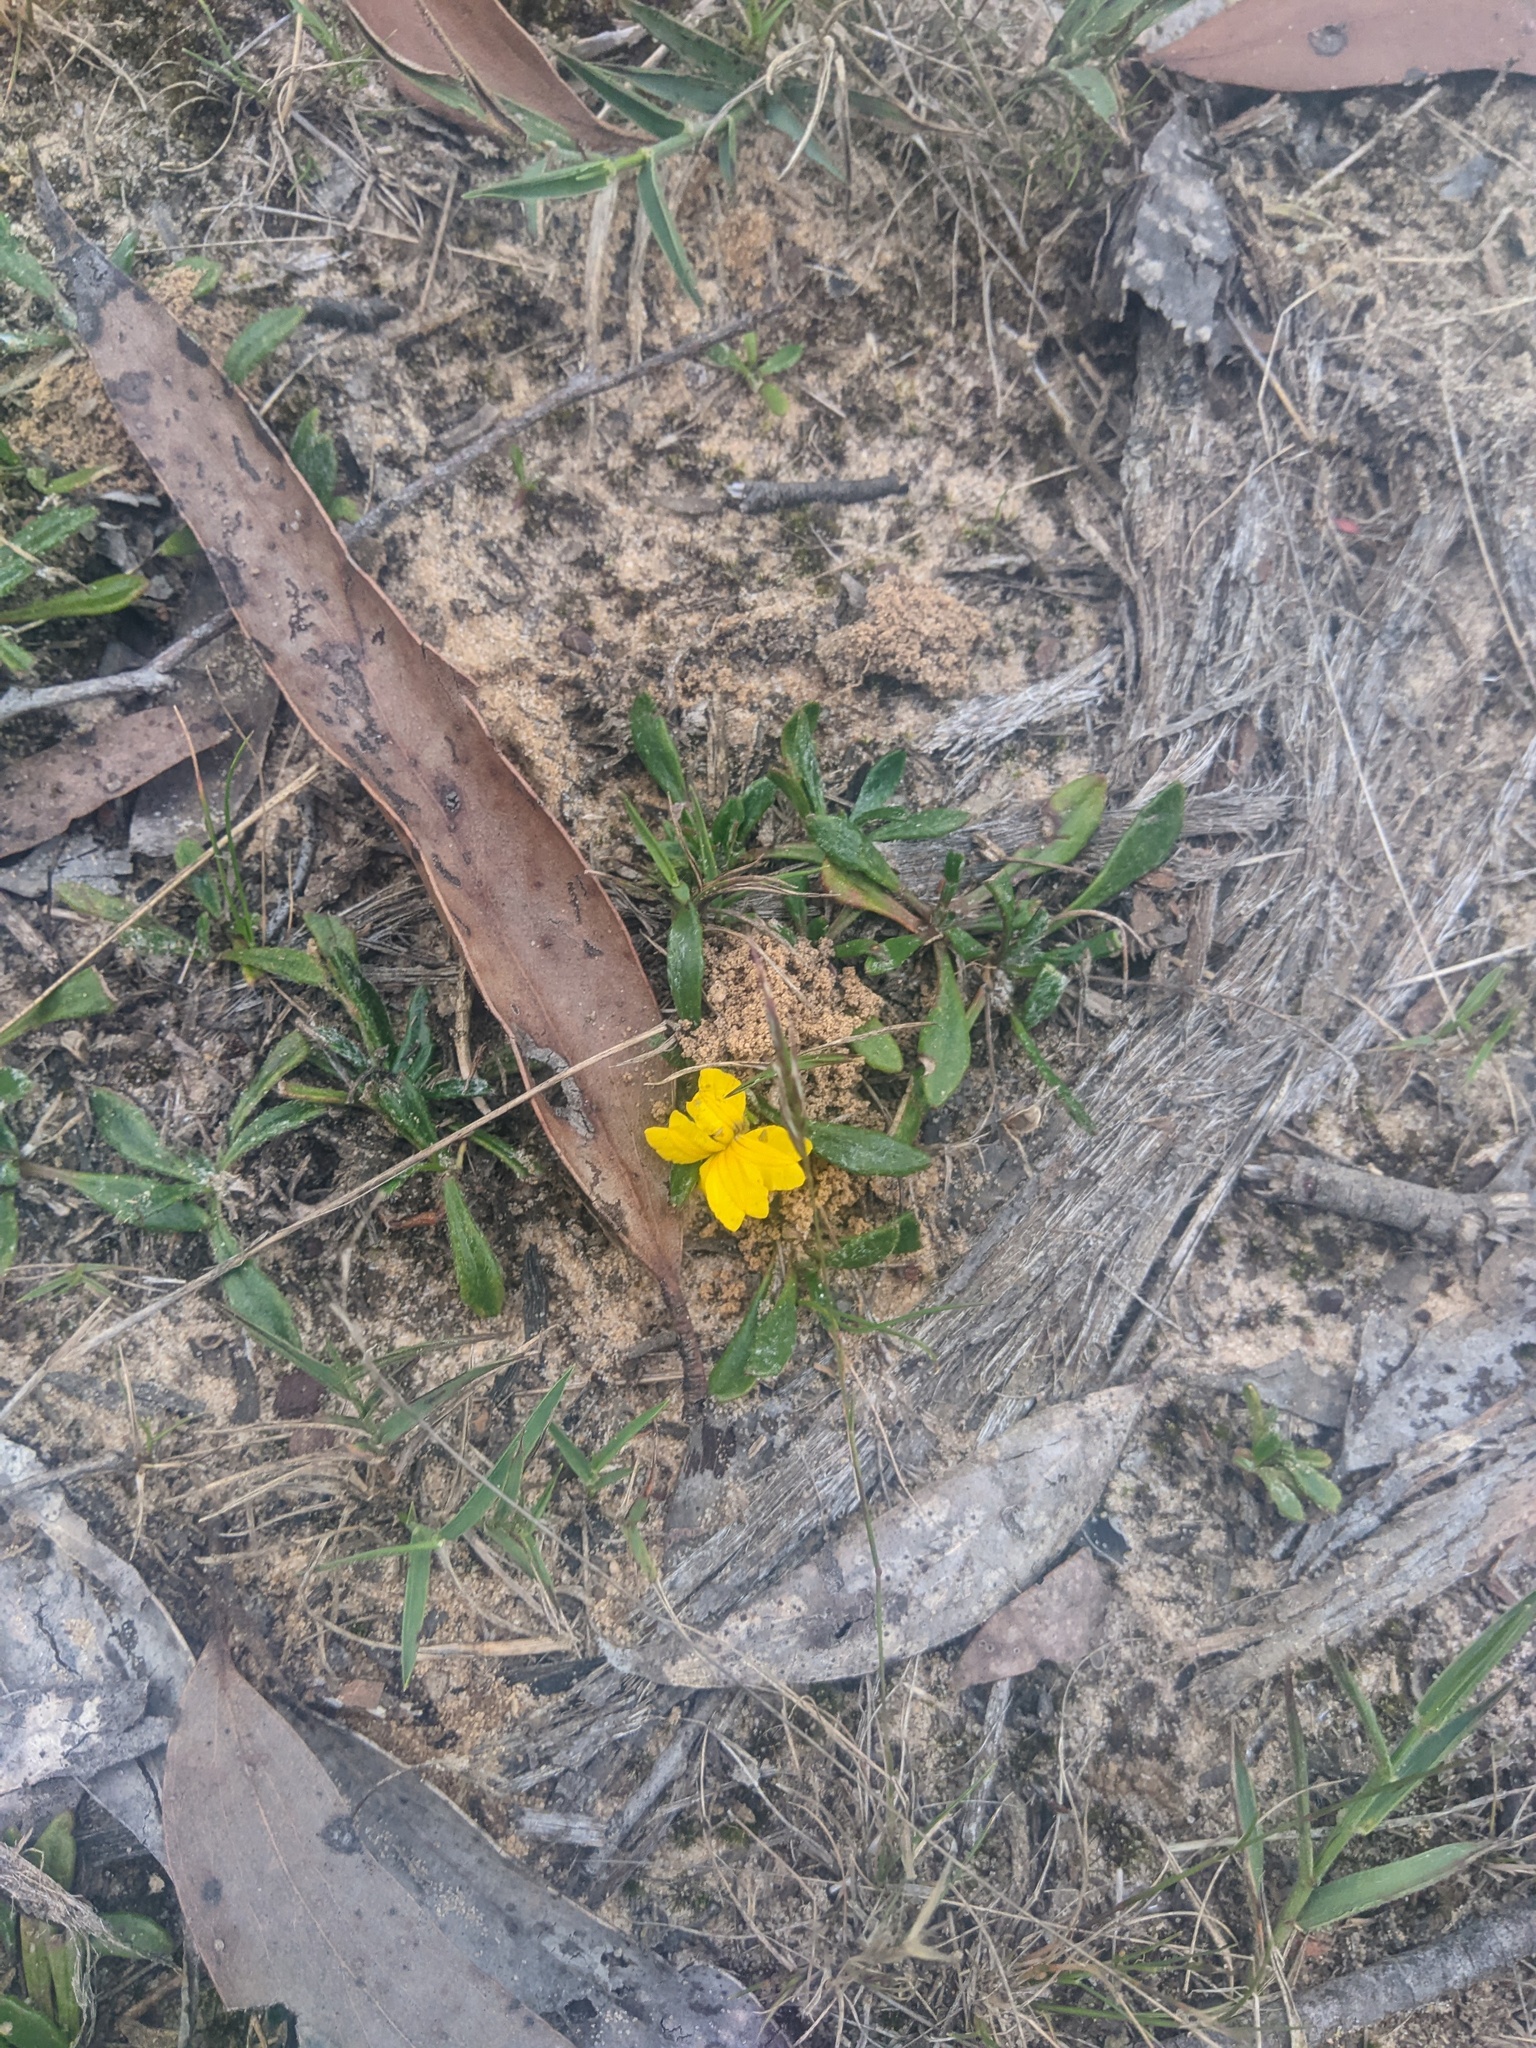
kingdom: Plantae
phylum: Tracheophyta
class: Magnoliopsida
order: Asterales
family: Goodeniaceae
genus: Goodenia
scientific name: Goodenia geniculata
